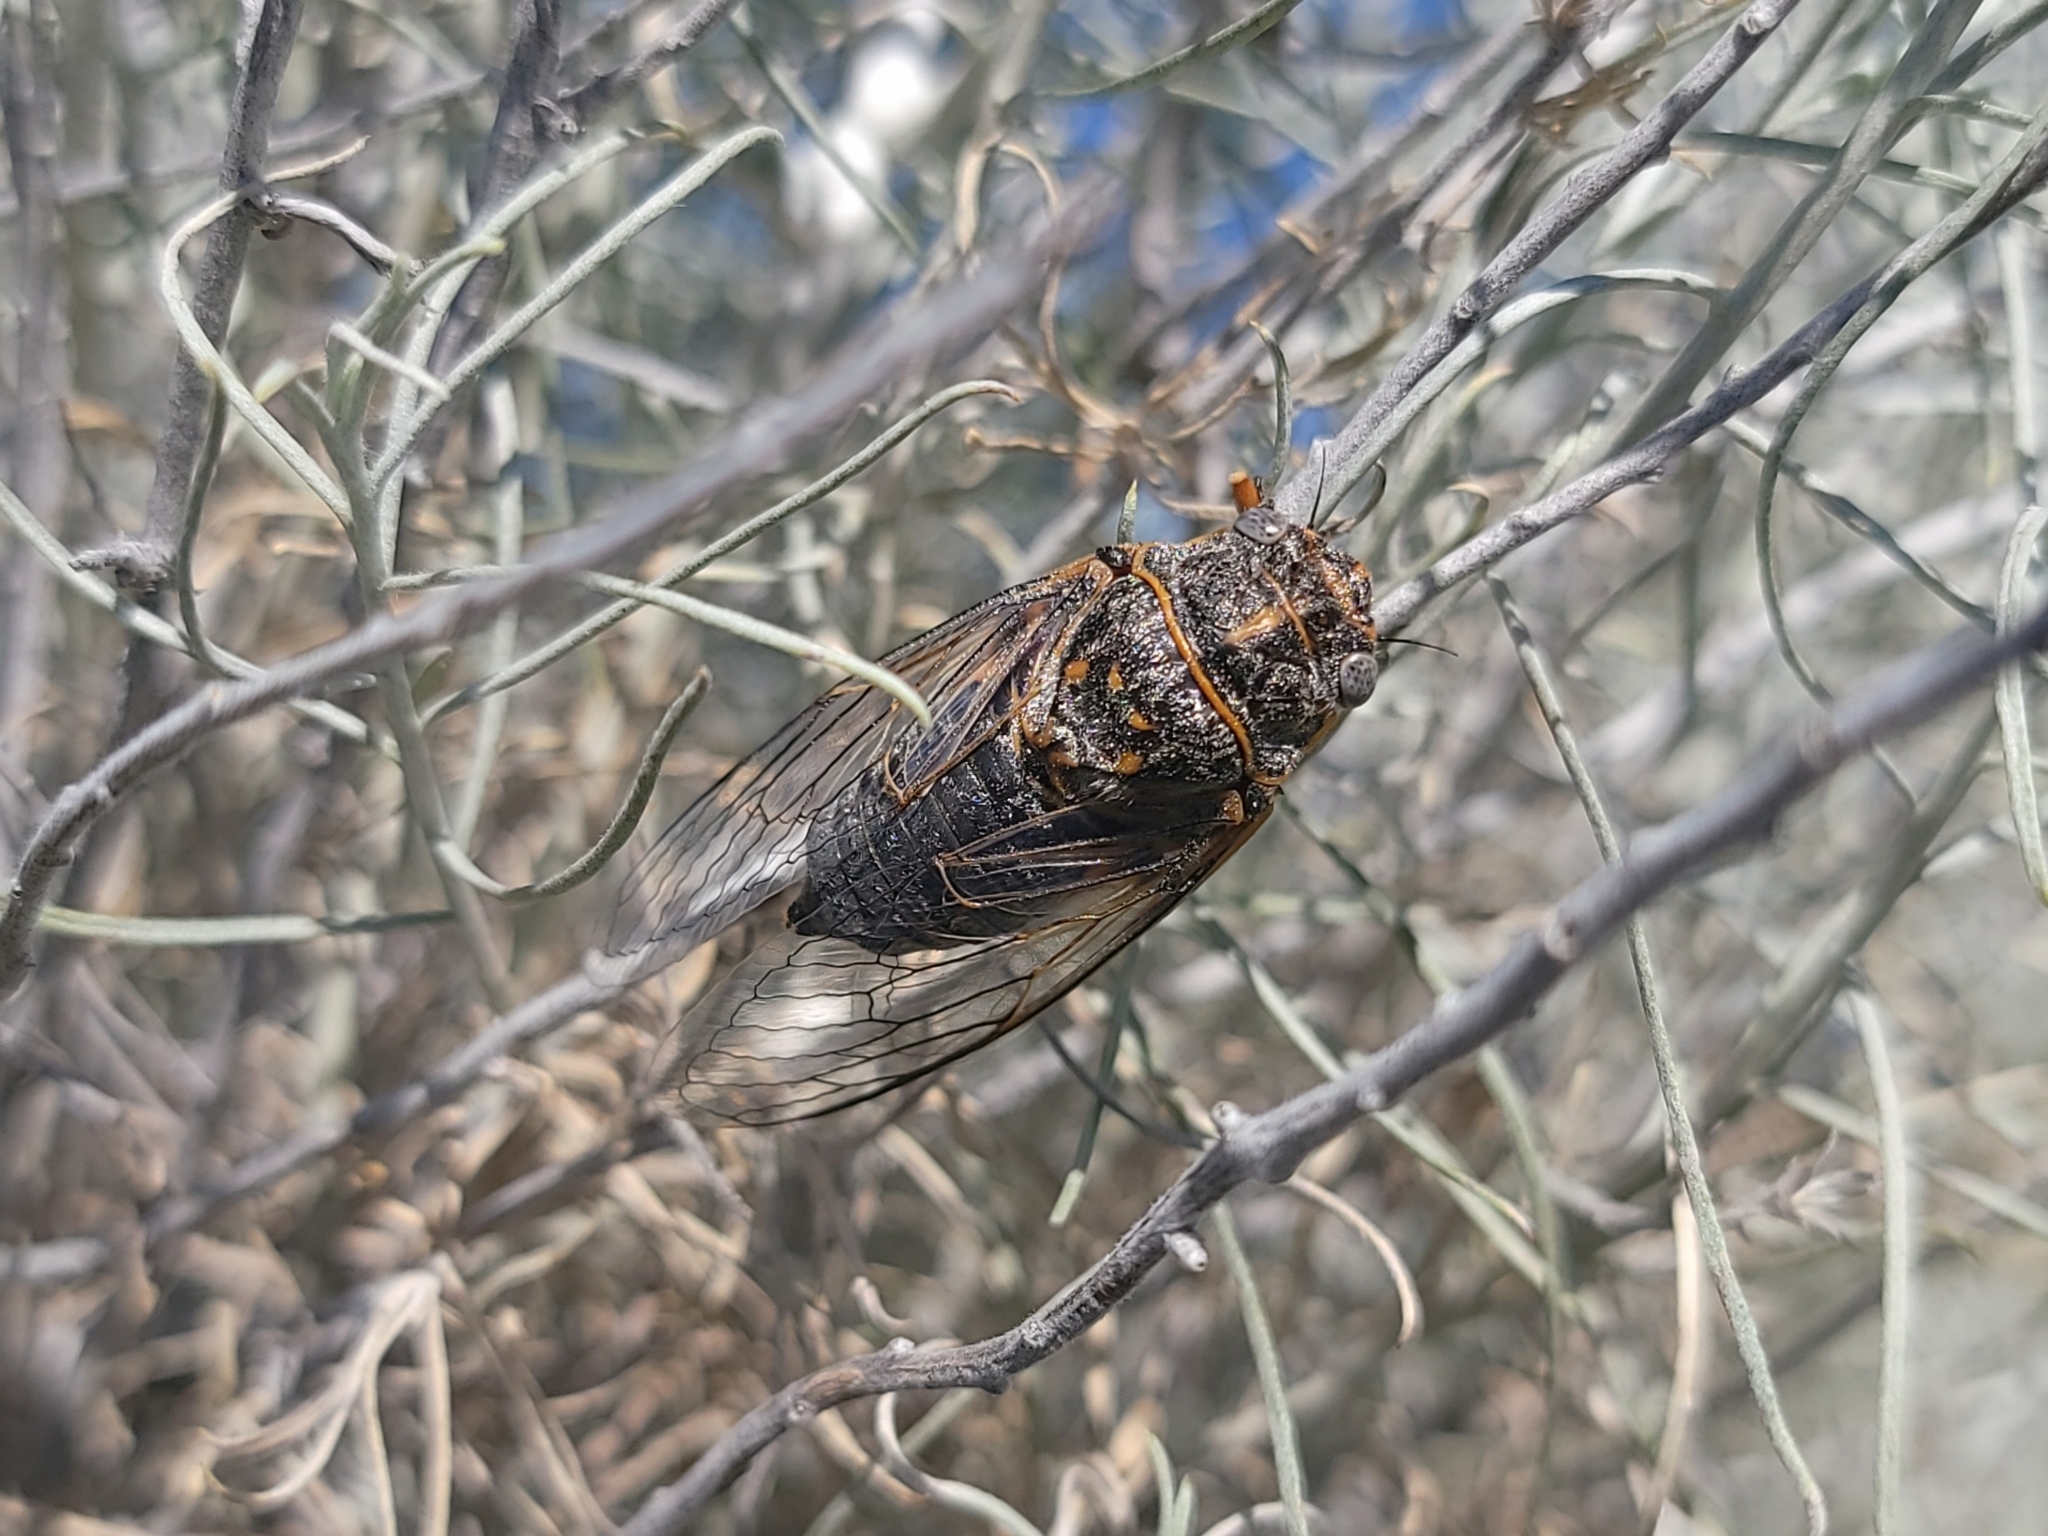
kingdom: Animalia
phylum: Arthropoda
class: Insecta
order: Hemiptera
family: Cicadidae
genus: Tibicinoides
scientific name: Tibicinoides
